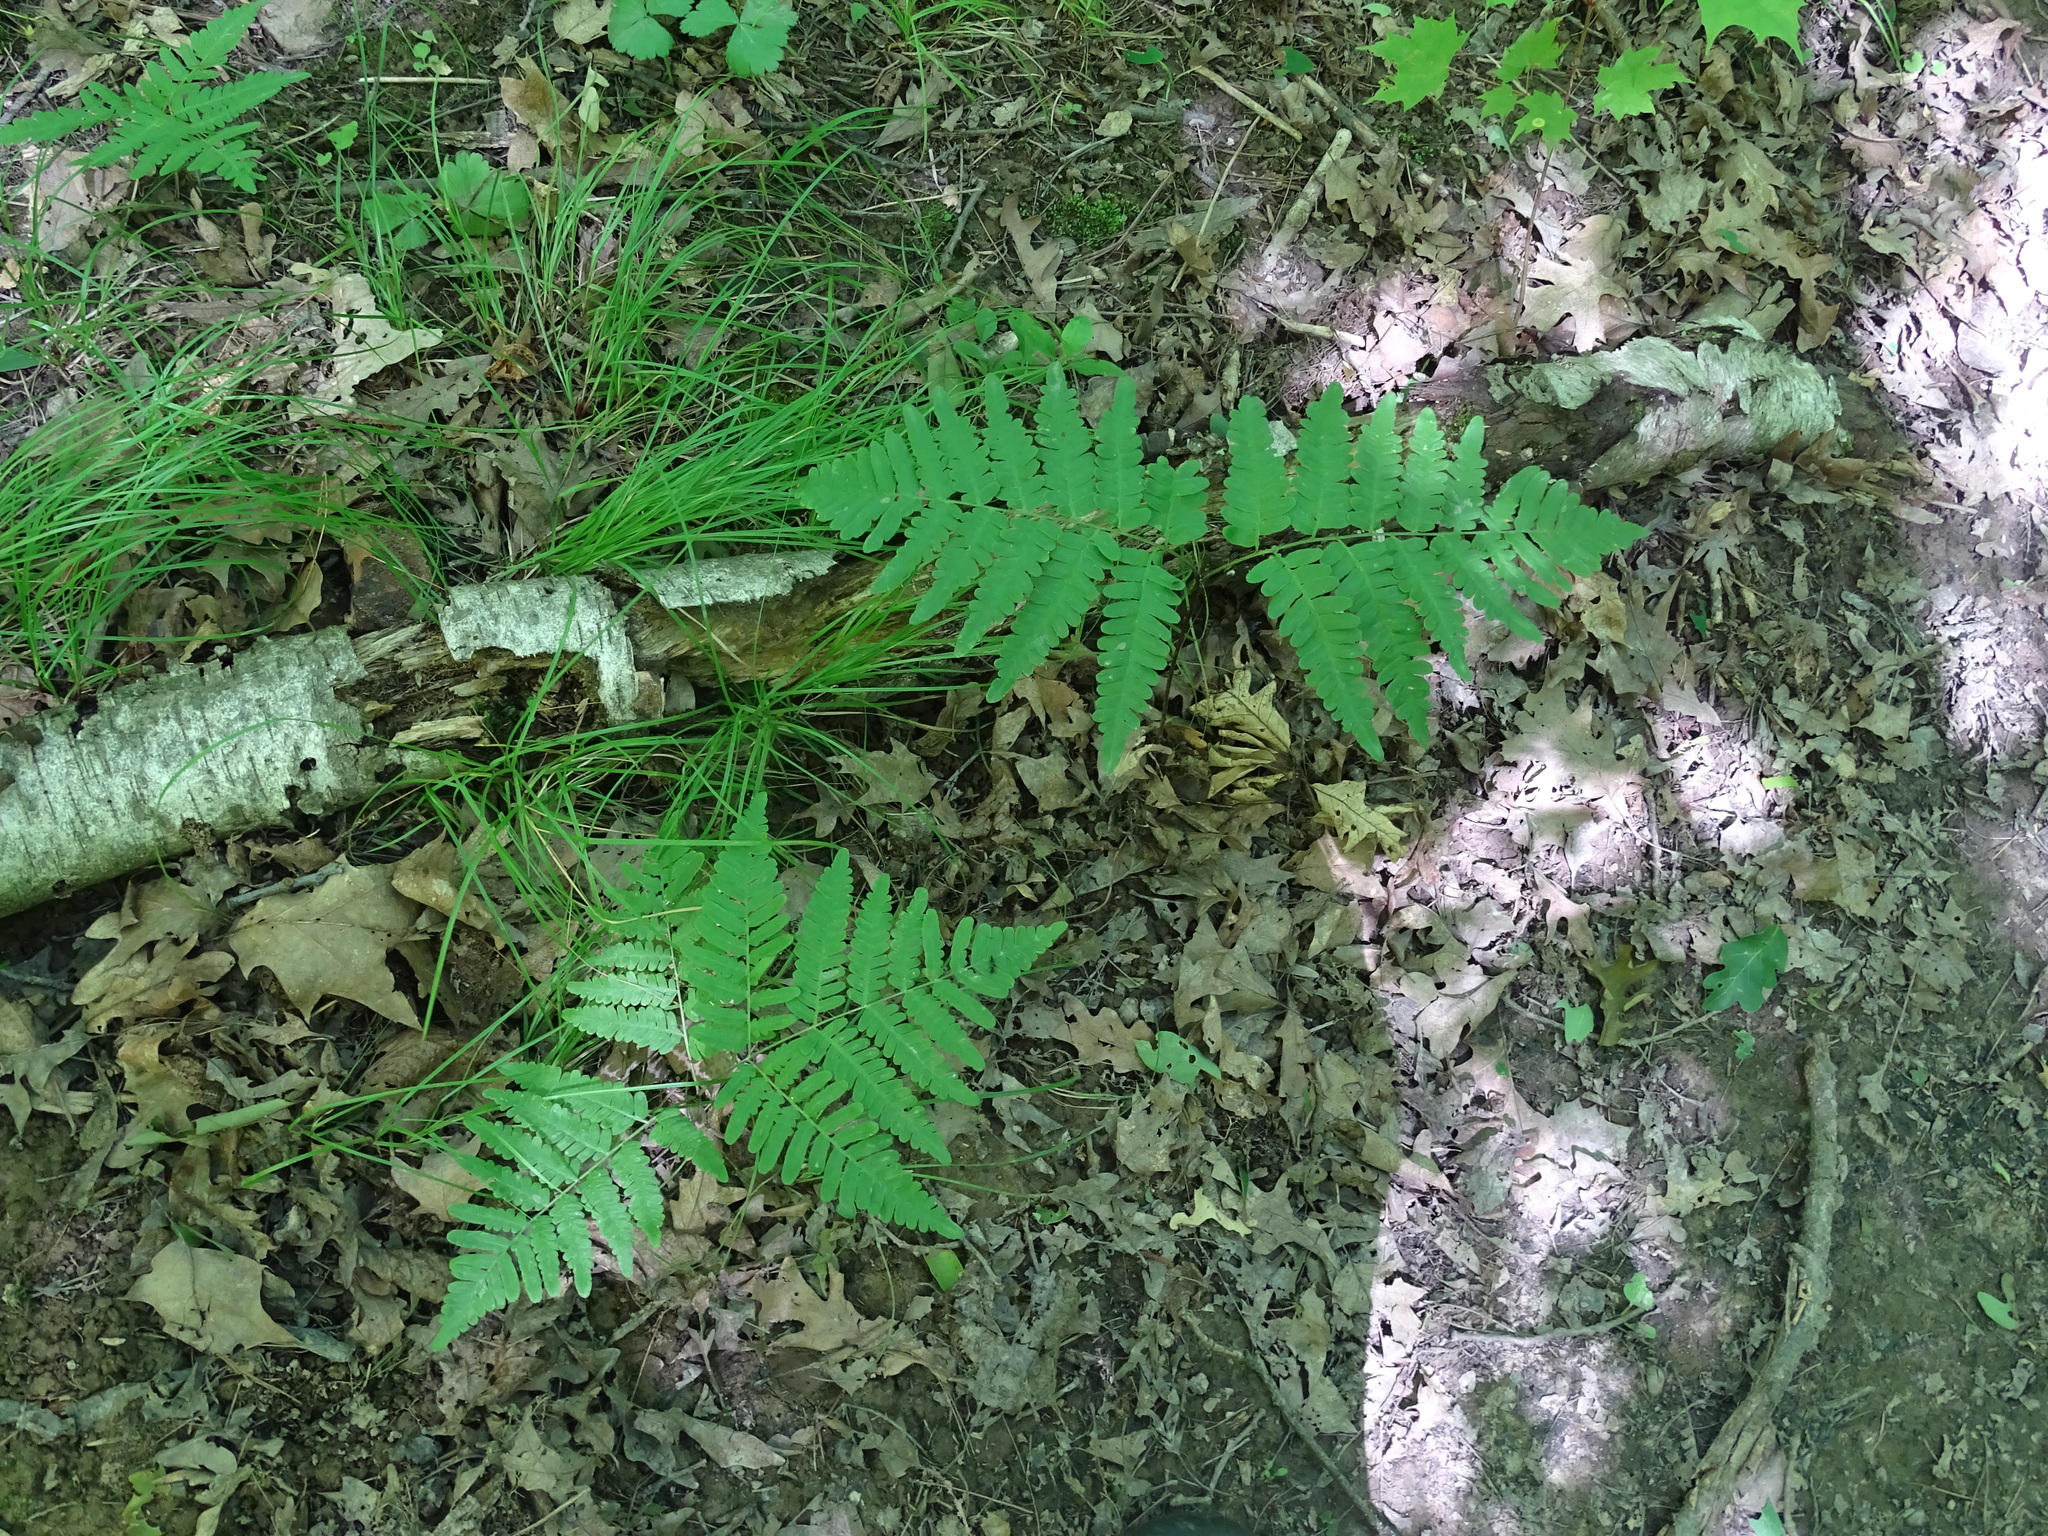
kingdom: Plantae
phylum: Tracheophyta
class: Polypodiopsida
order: Polypodiales
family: Dennstaedtiaceae
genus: Pteridium
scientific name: Pteridium aquilinum
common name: Bracken
